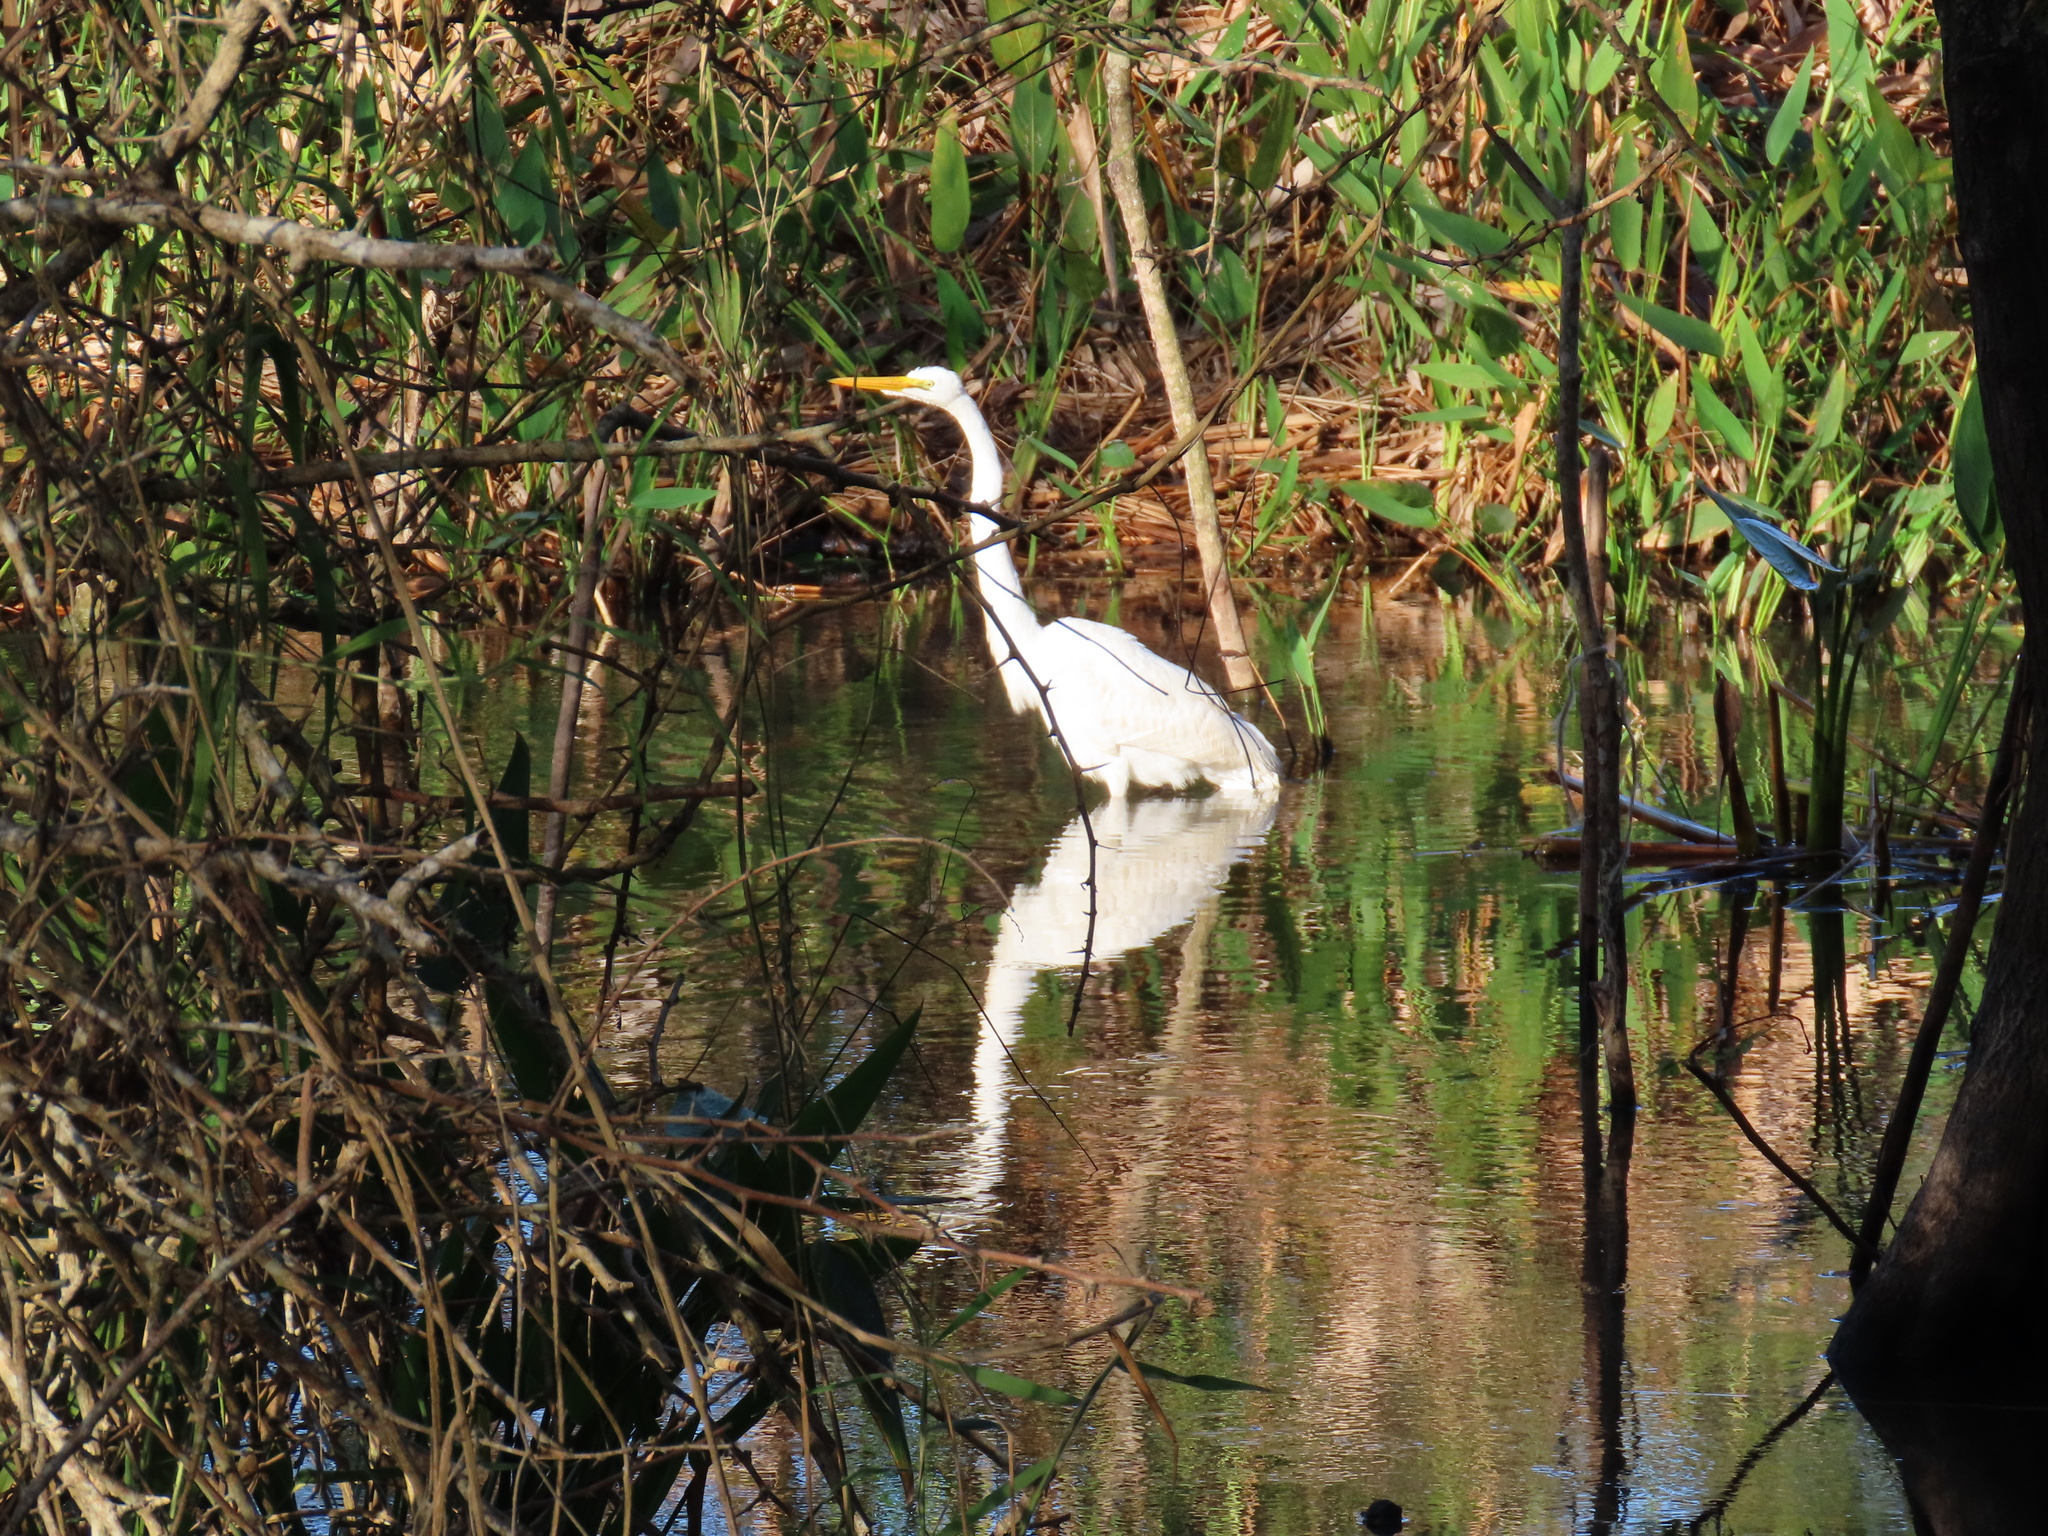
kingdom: Animalia
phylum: Chordata
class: Aves
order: Pelecaniformes
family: Ardeidae
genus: Ardea
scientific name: Ardea alba
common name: Great egret
